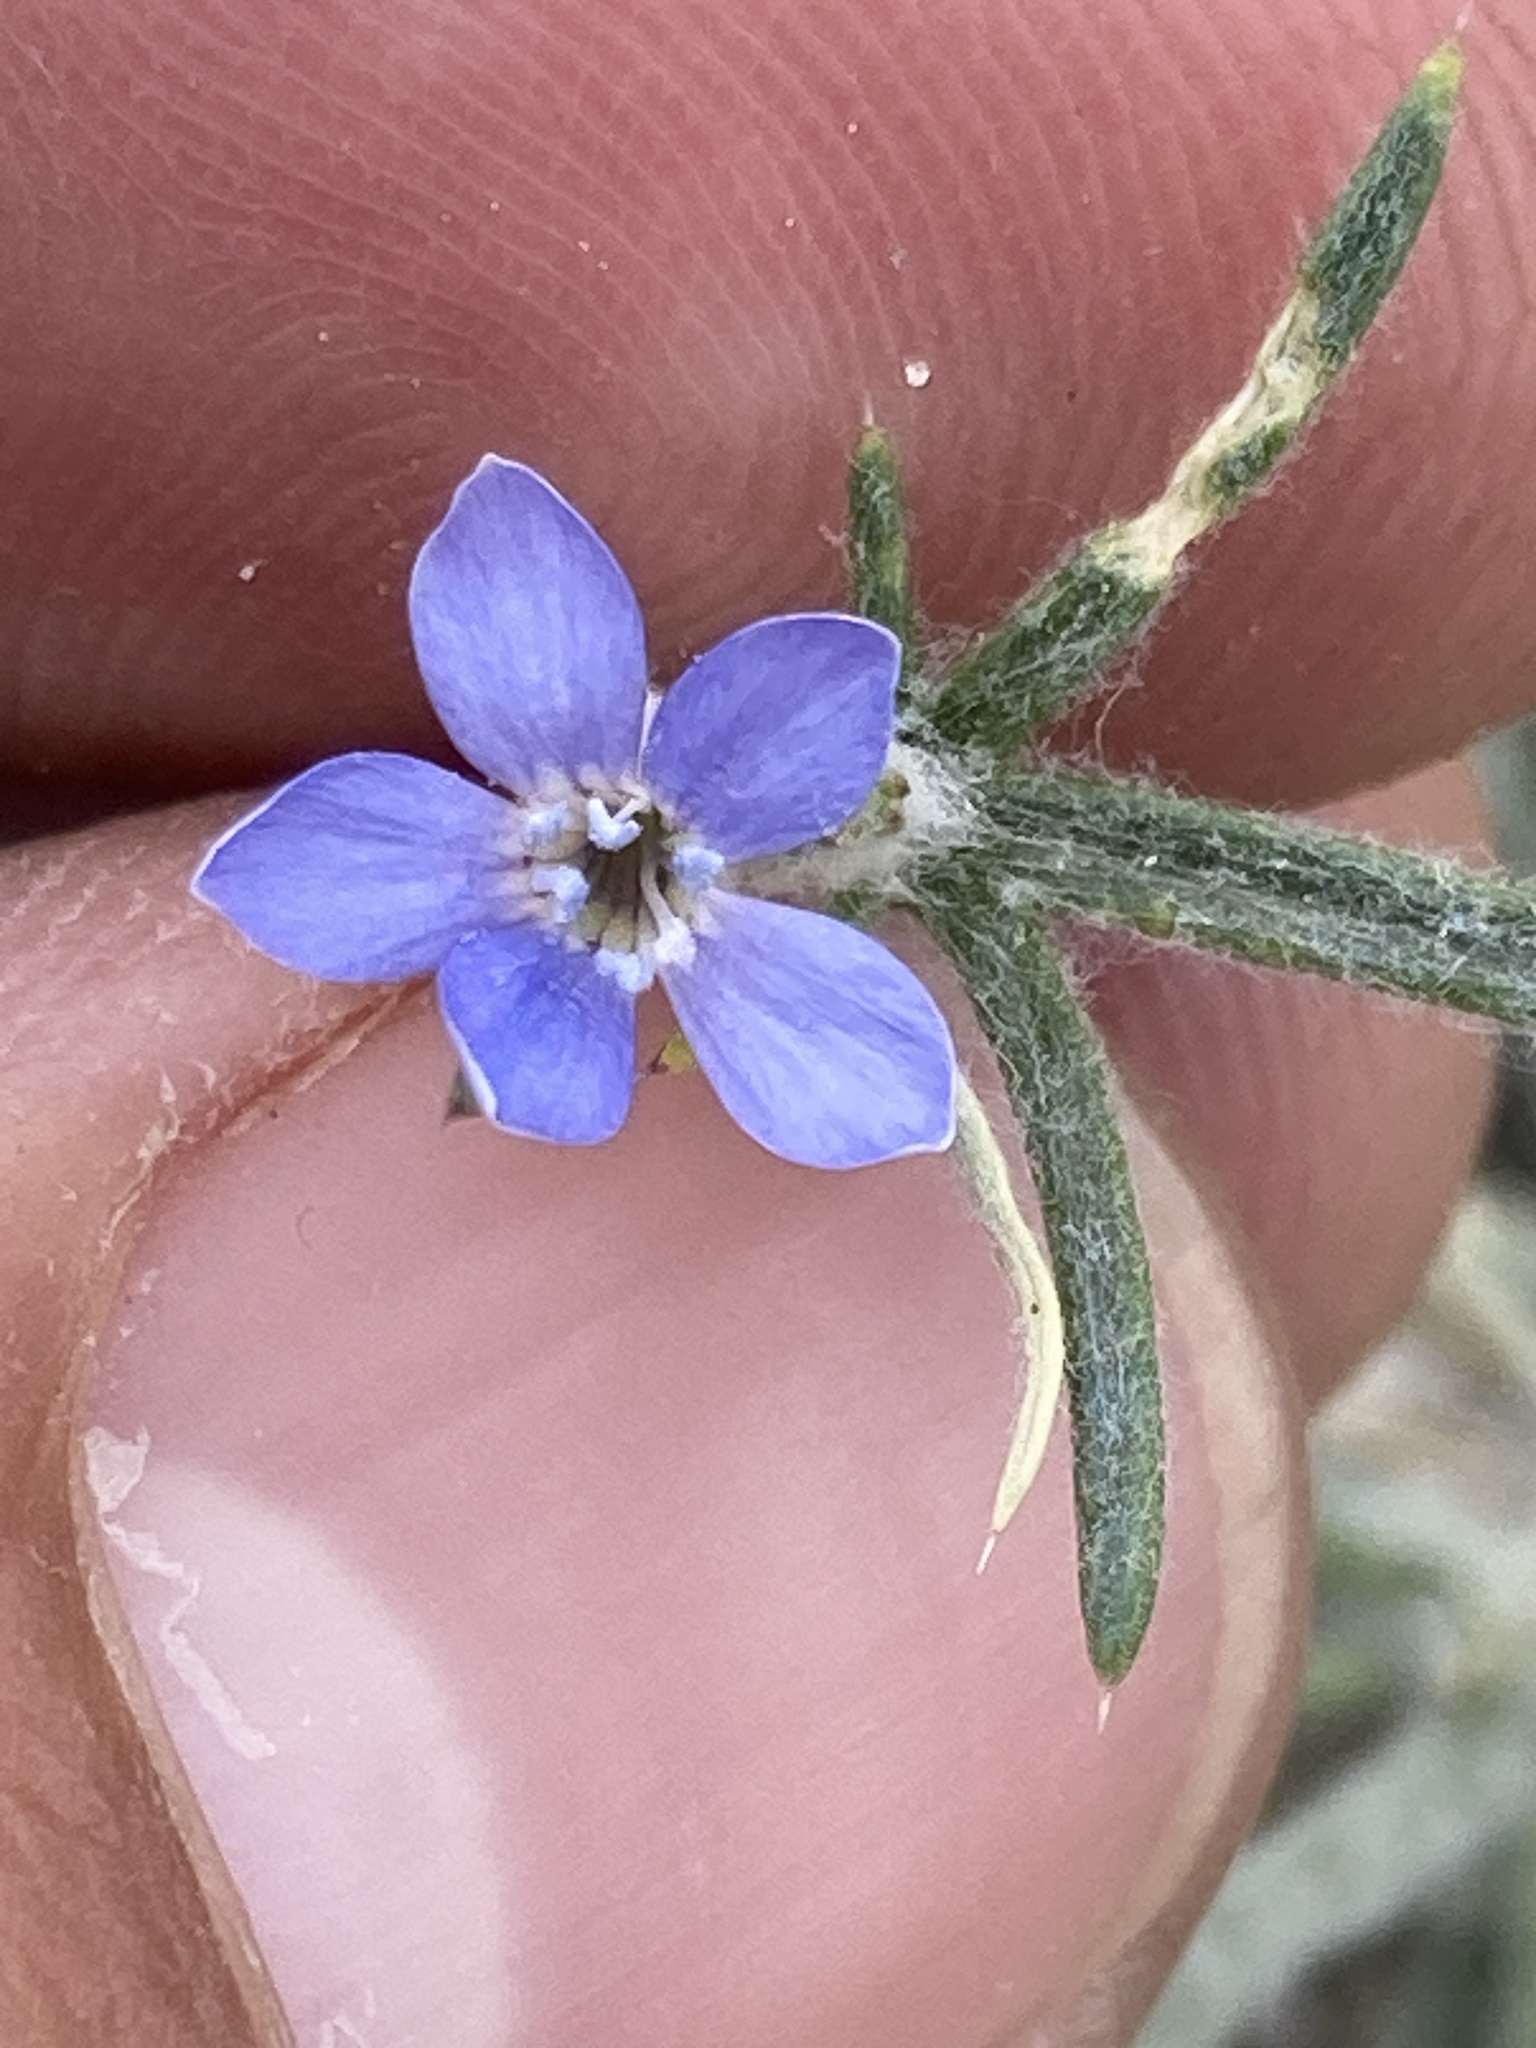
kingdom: Plantae
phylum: Tracheophyta
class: Magnoliopsida
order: Ericales
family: Polemoniaceae
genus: Eriastrum
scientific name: Eriastrum wilcoxii
